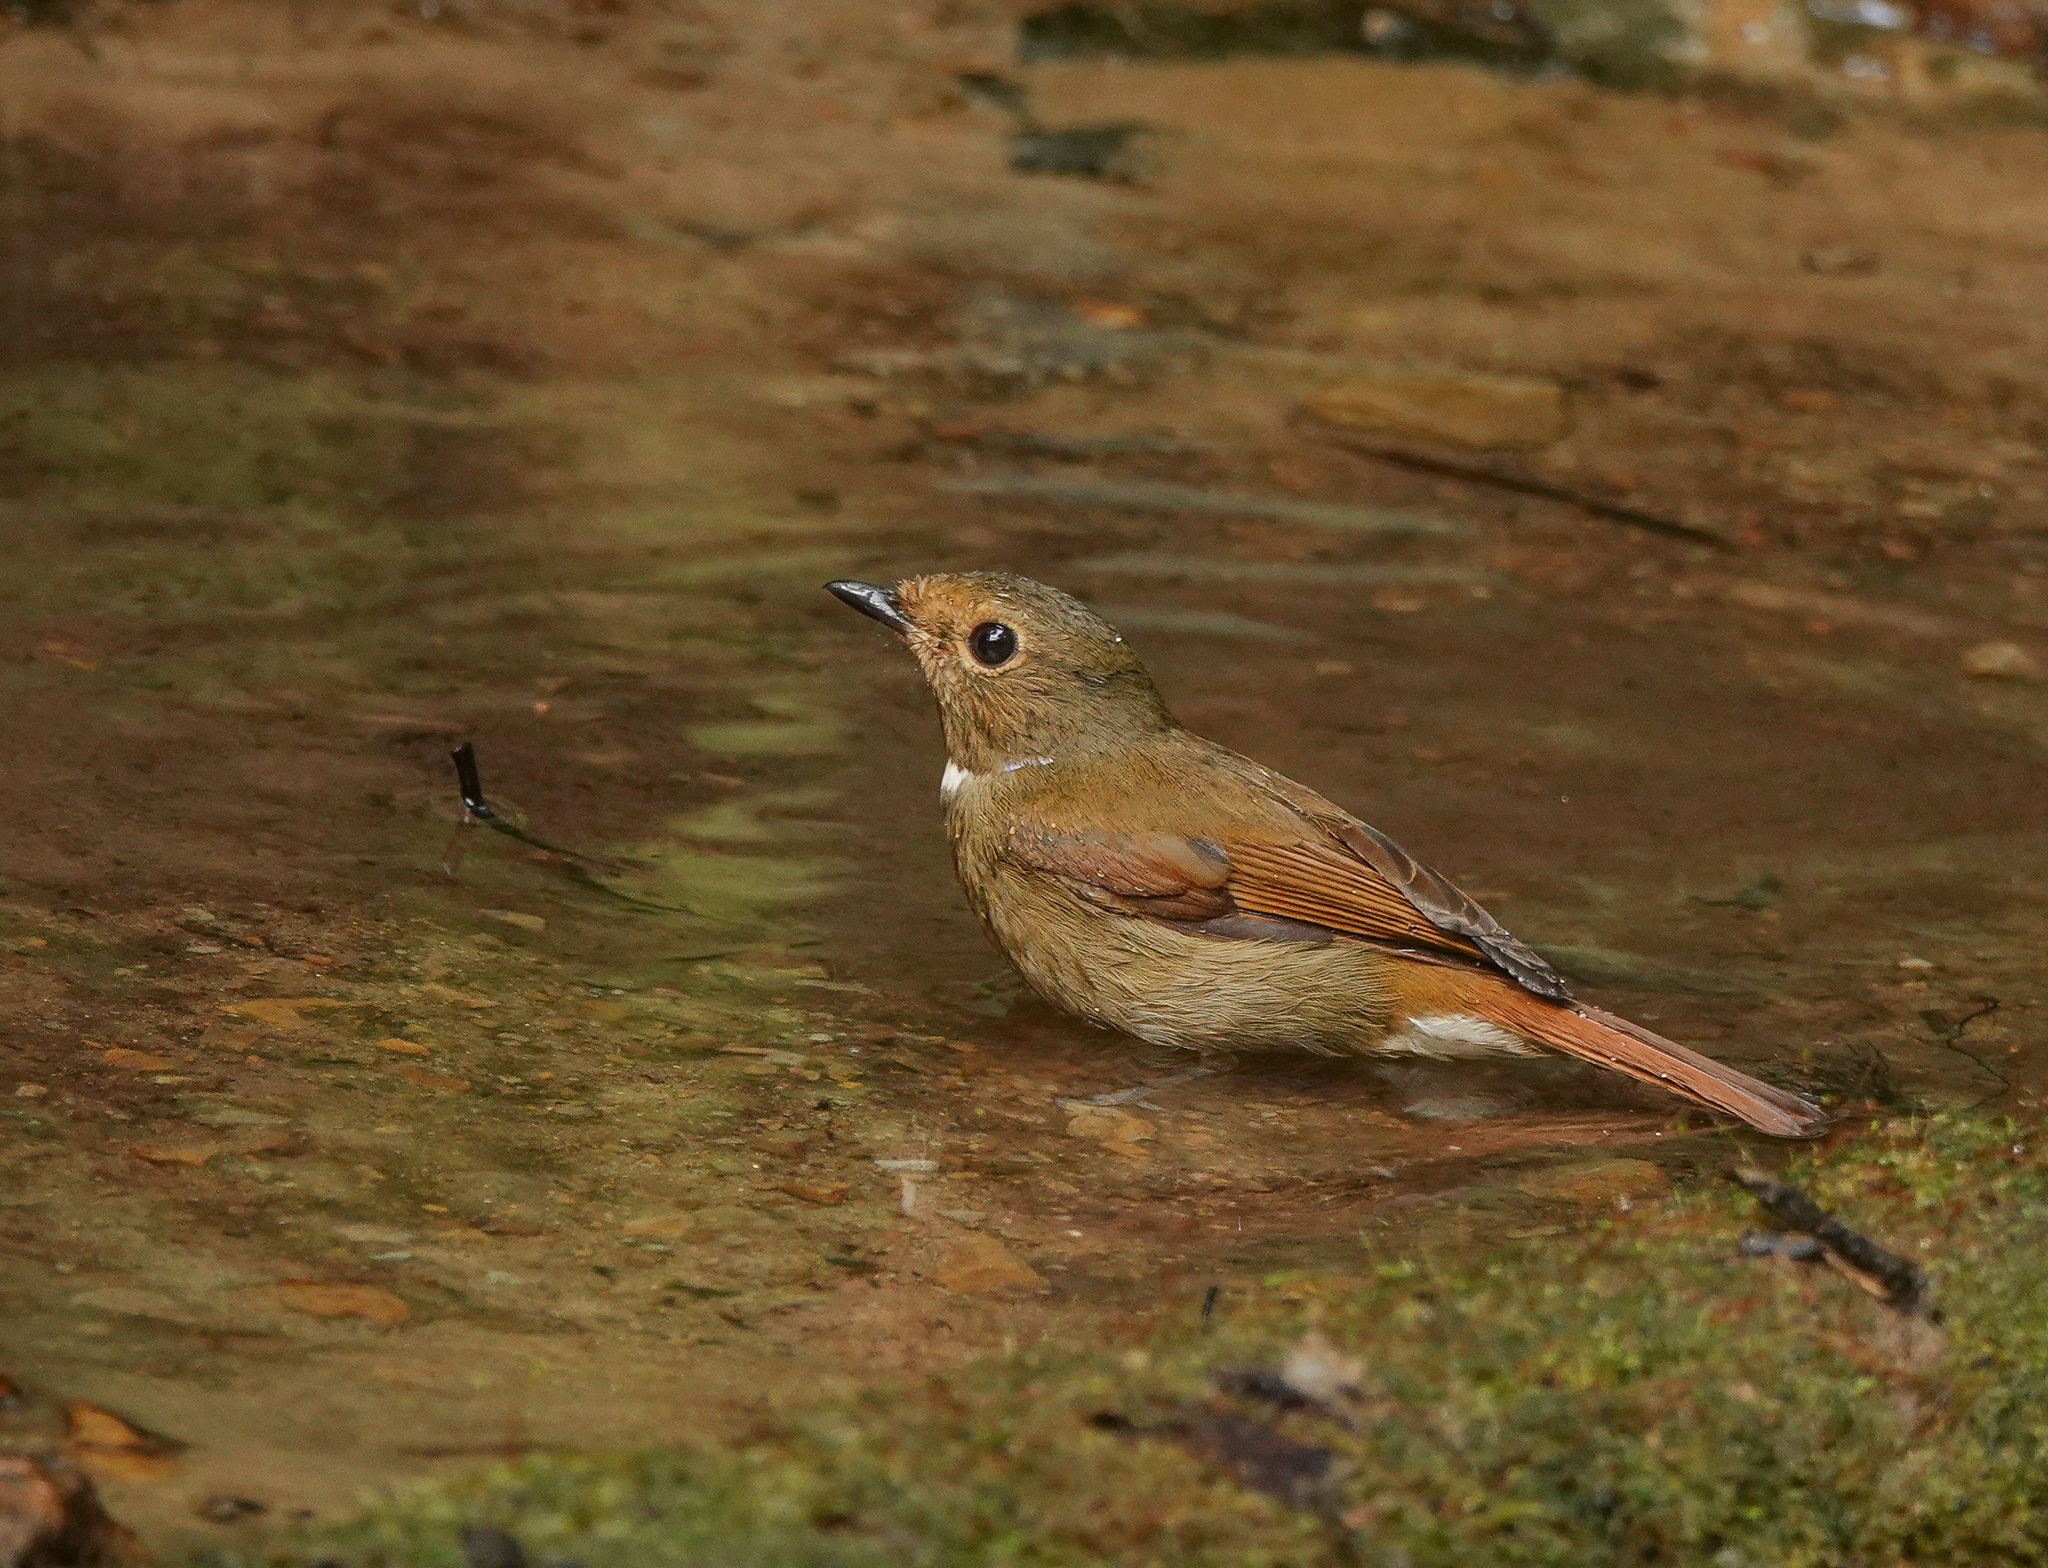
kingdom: Animalia
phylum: Chordata
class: Aves
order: Passeriformes
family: Muscicapidae
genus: Niltava
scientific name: Niltava sundara
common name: Rufous-bellied niltava
